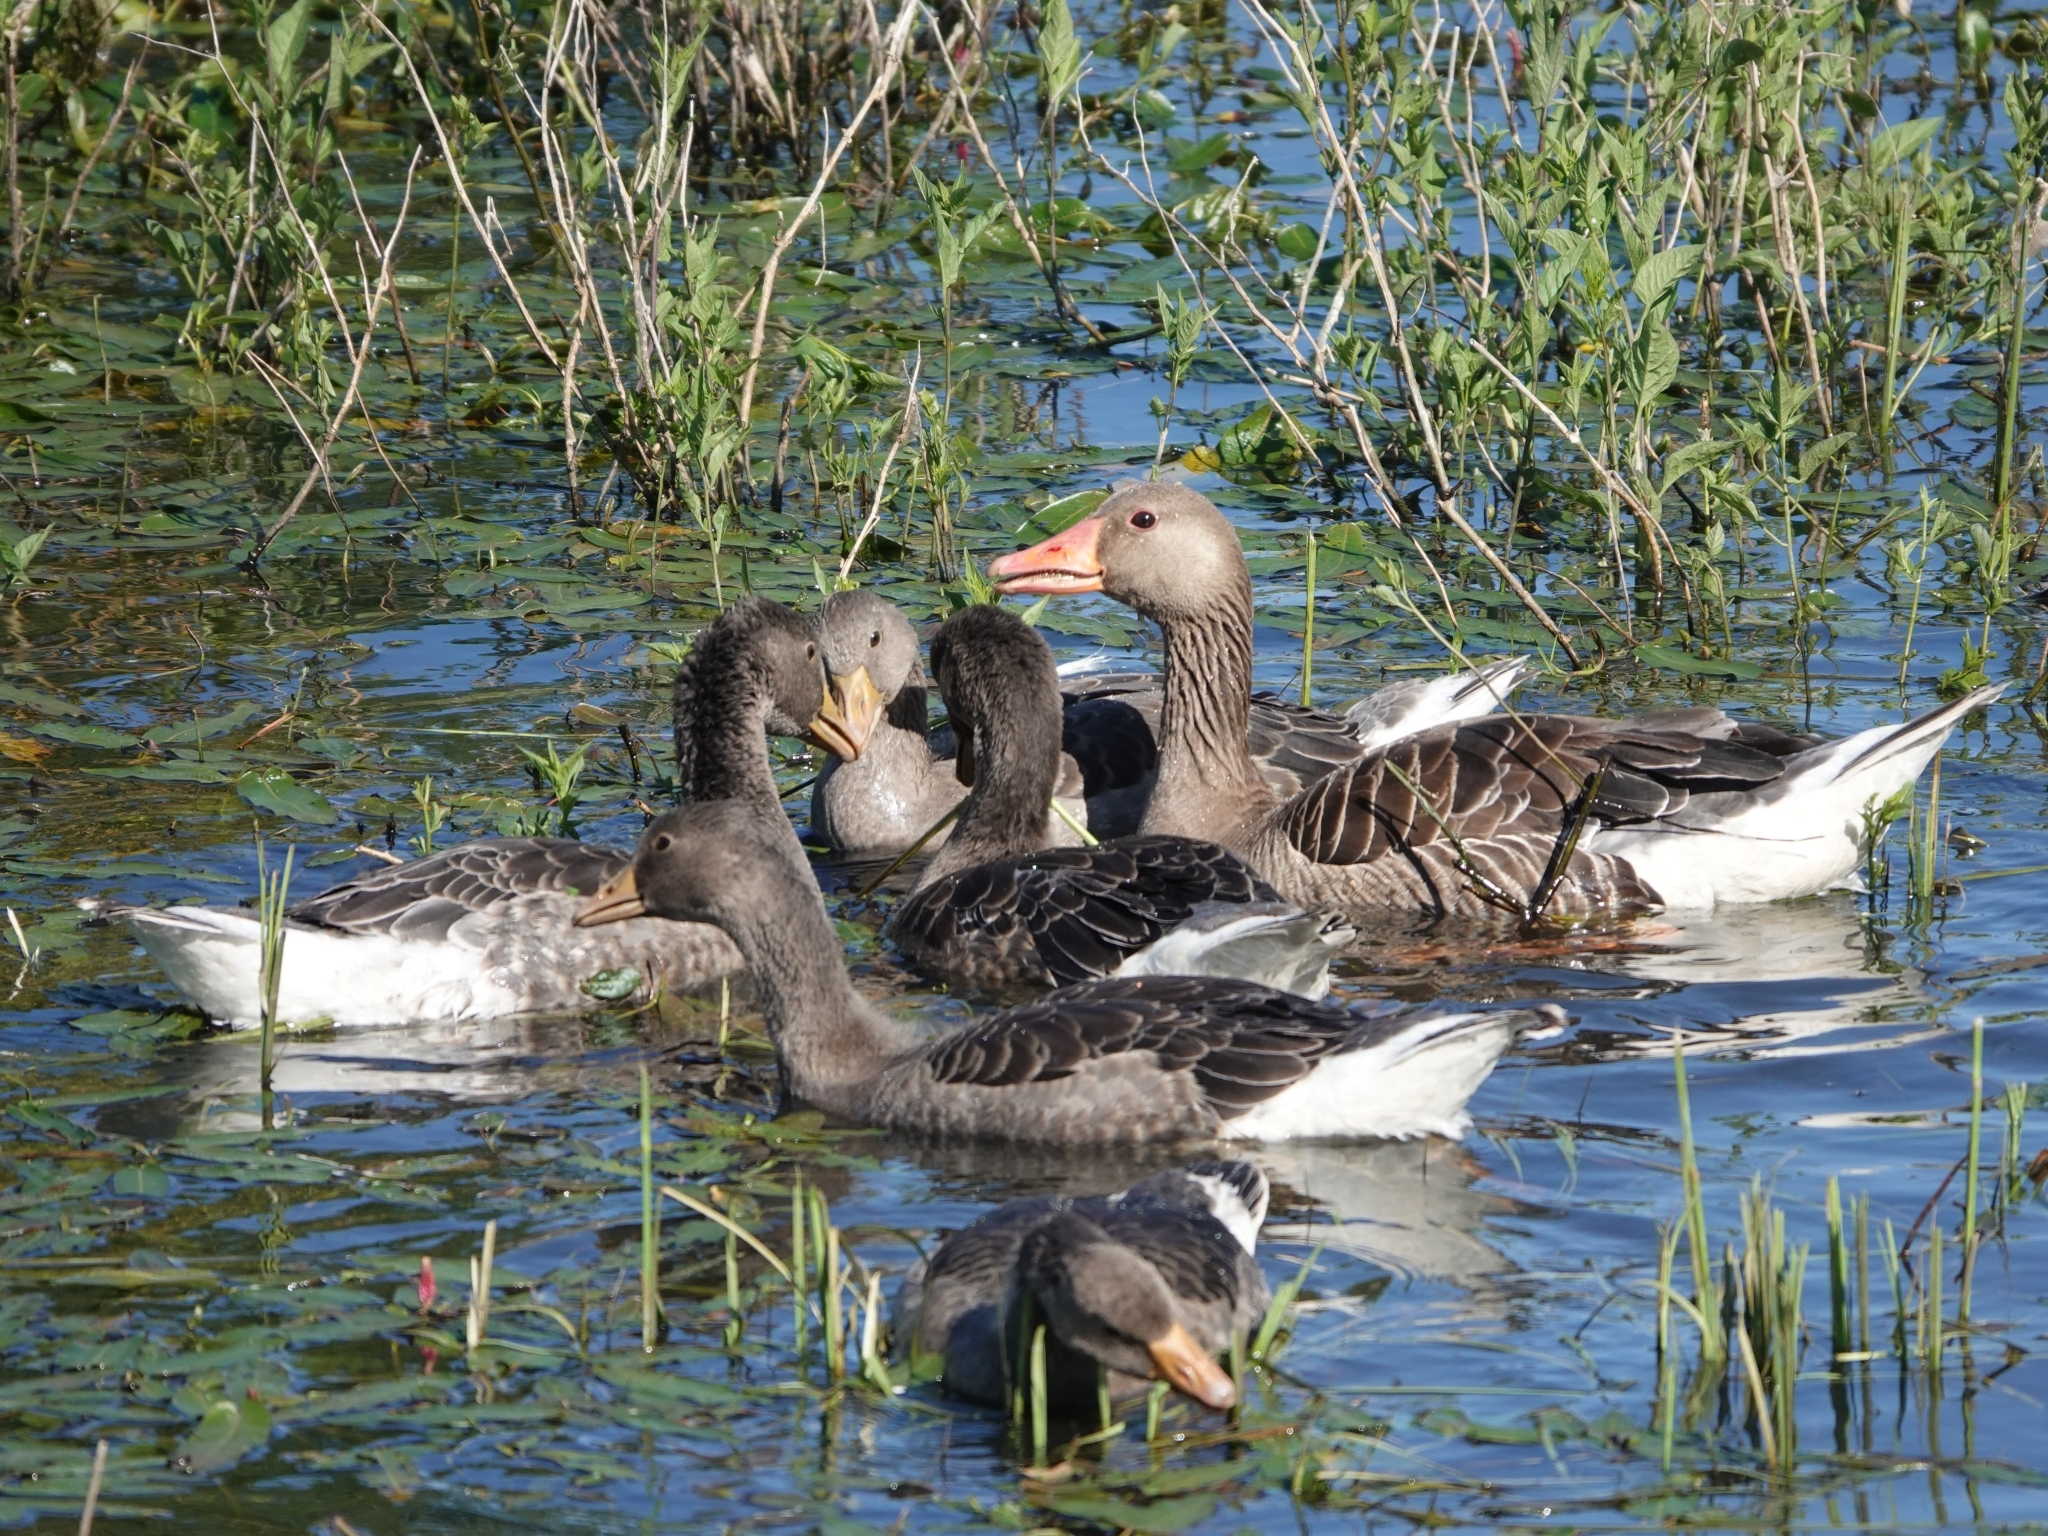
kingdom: Animalia
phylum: Chordata
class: Aves
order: Anseriformes
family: Anatidae
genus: Anser
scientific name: Anser anser
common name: Greylag goose
